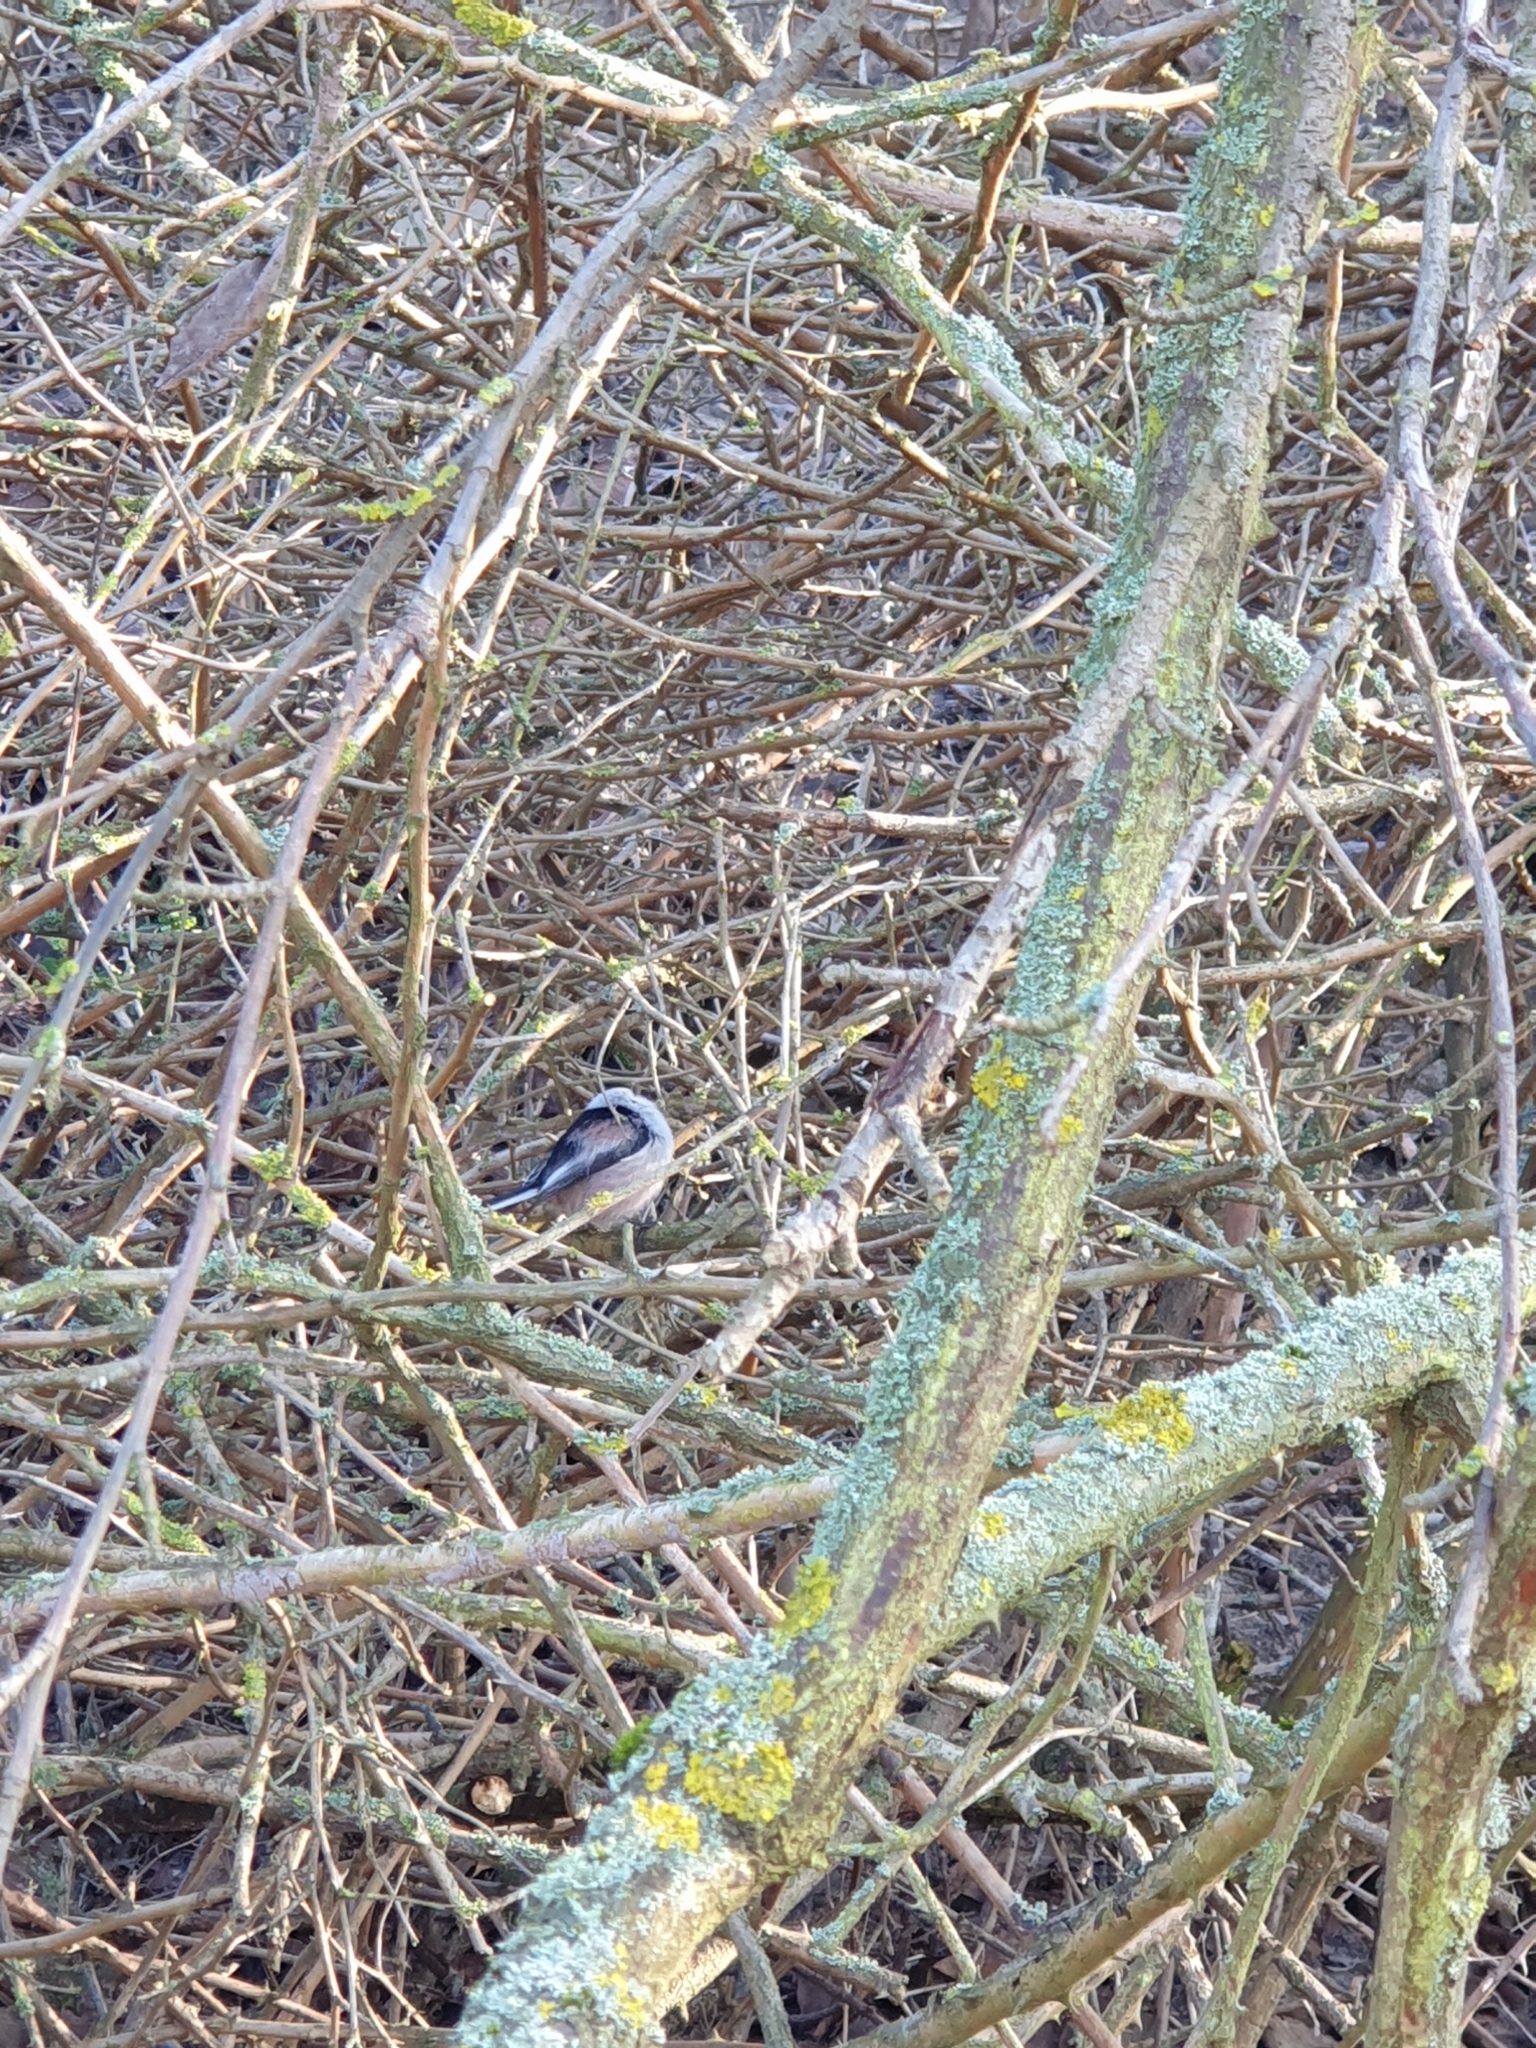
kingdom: Animalia
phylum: Chordata
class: Aves
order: Passeriformes
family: Aegithalidae
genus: Aegithalos
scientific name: Aegithalos caudatus
